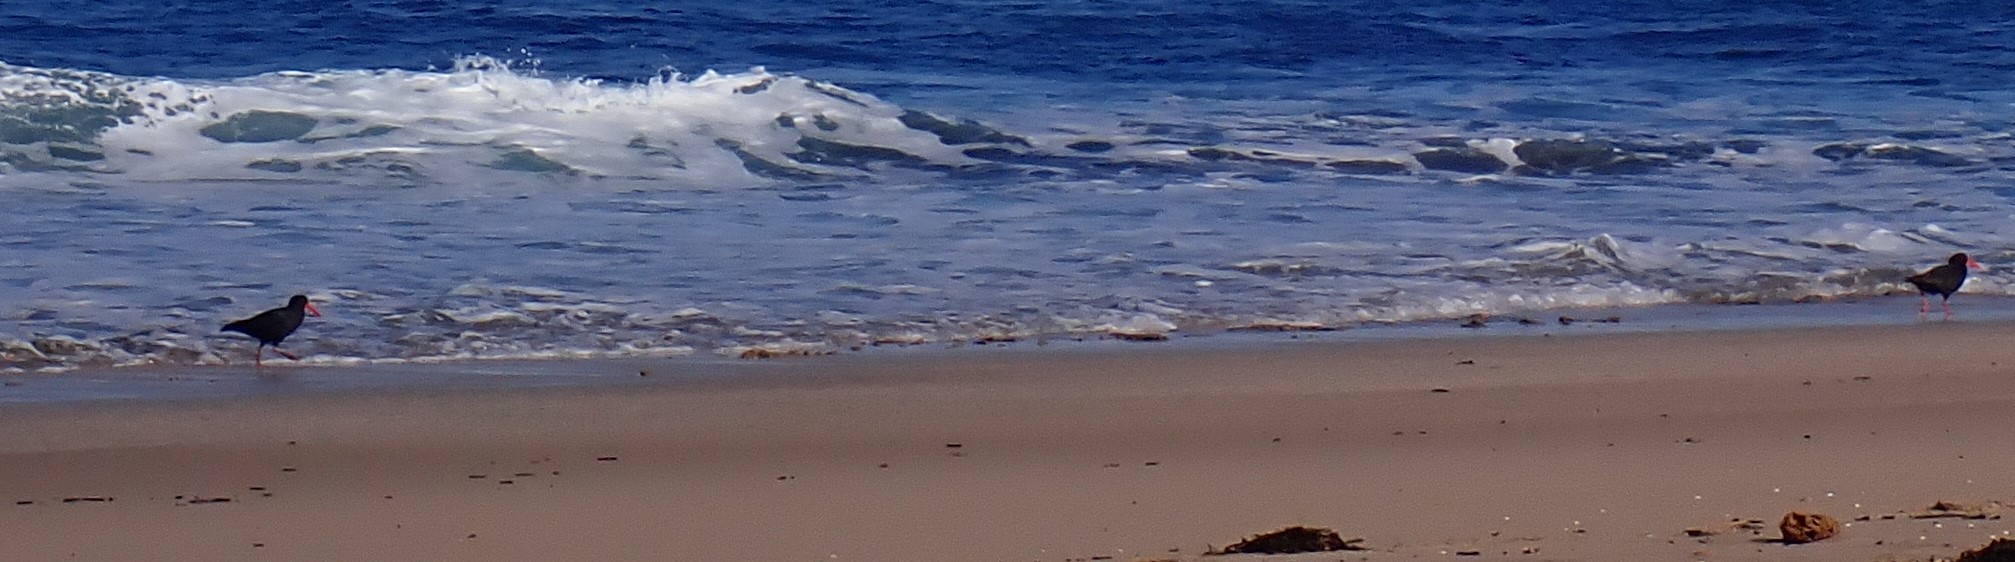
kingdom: Animalia
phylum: Chordata
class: Aves
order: Charadriiformes
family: Haematopodidae
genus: Haematopus
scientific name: Haematopus fuliginosus
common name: Sooty oystercatcher
